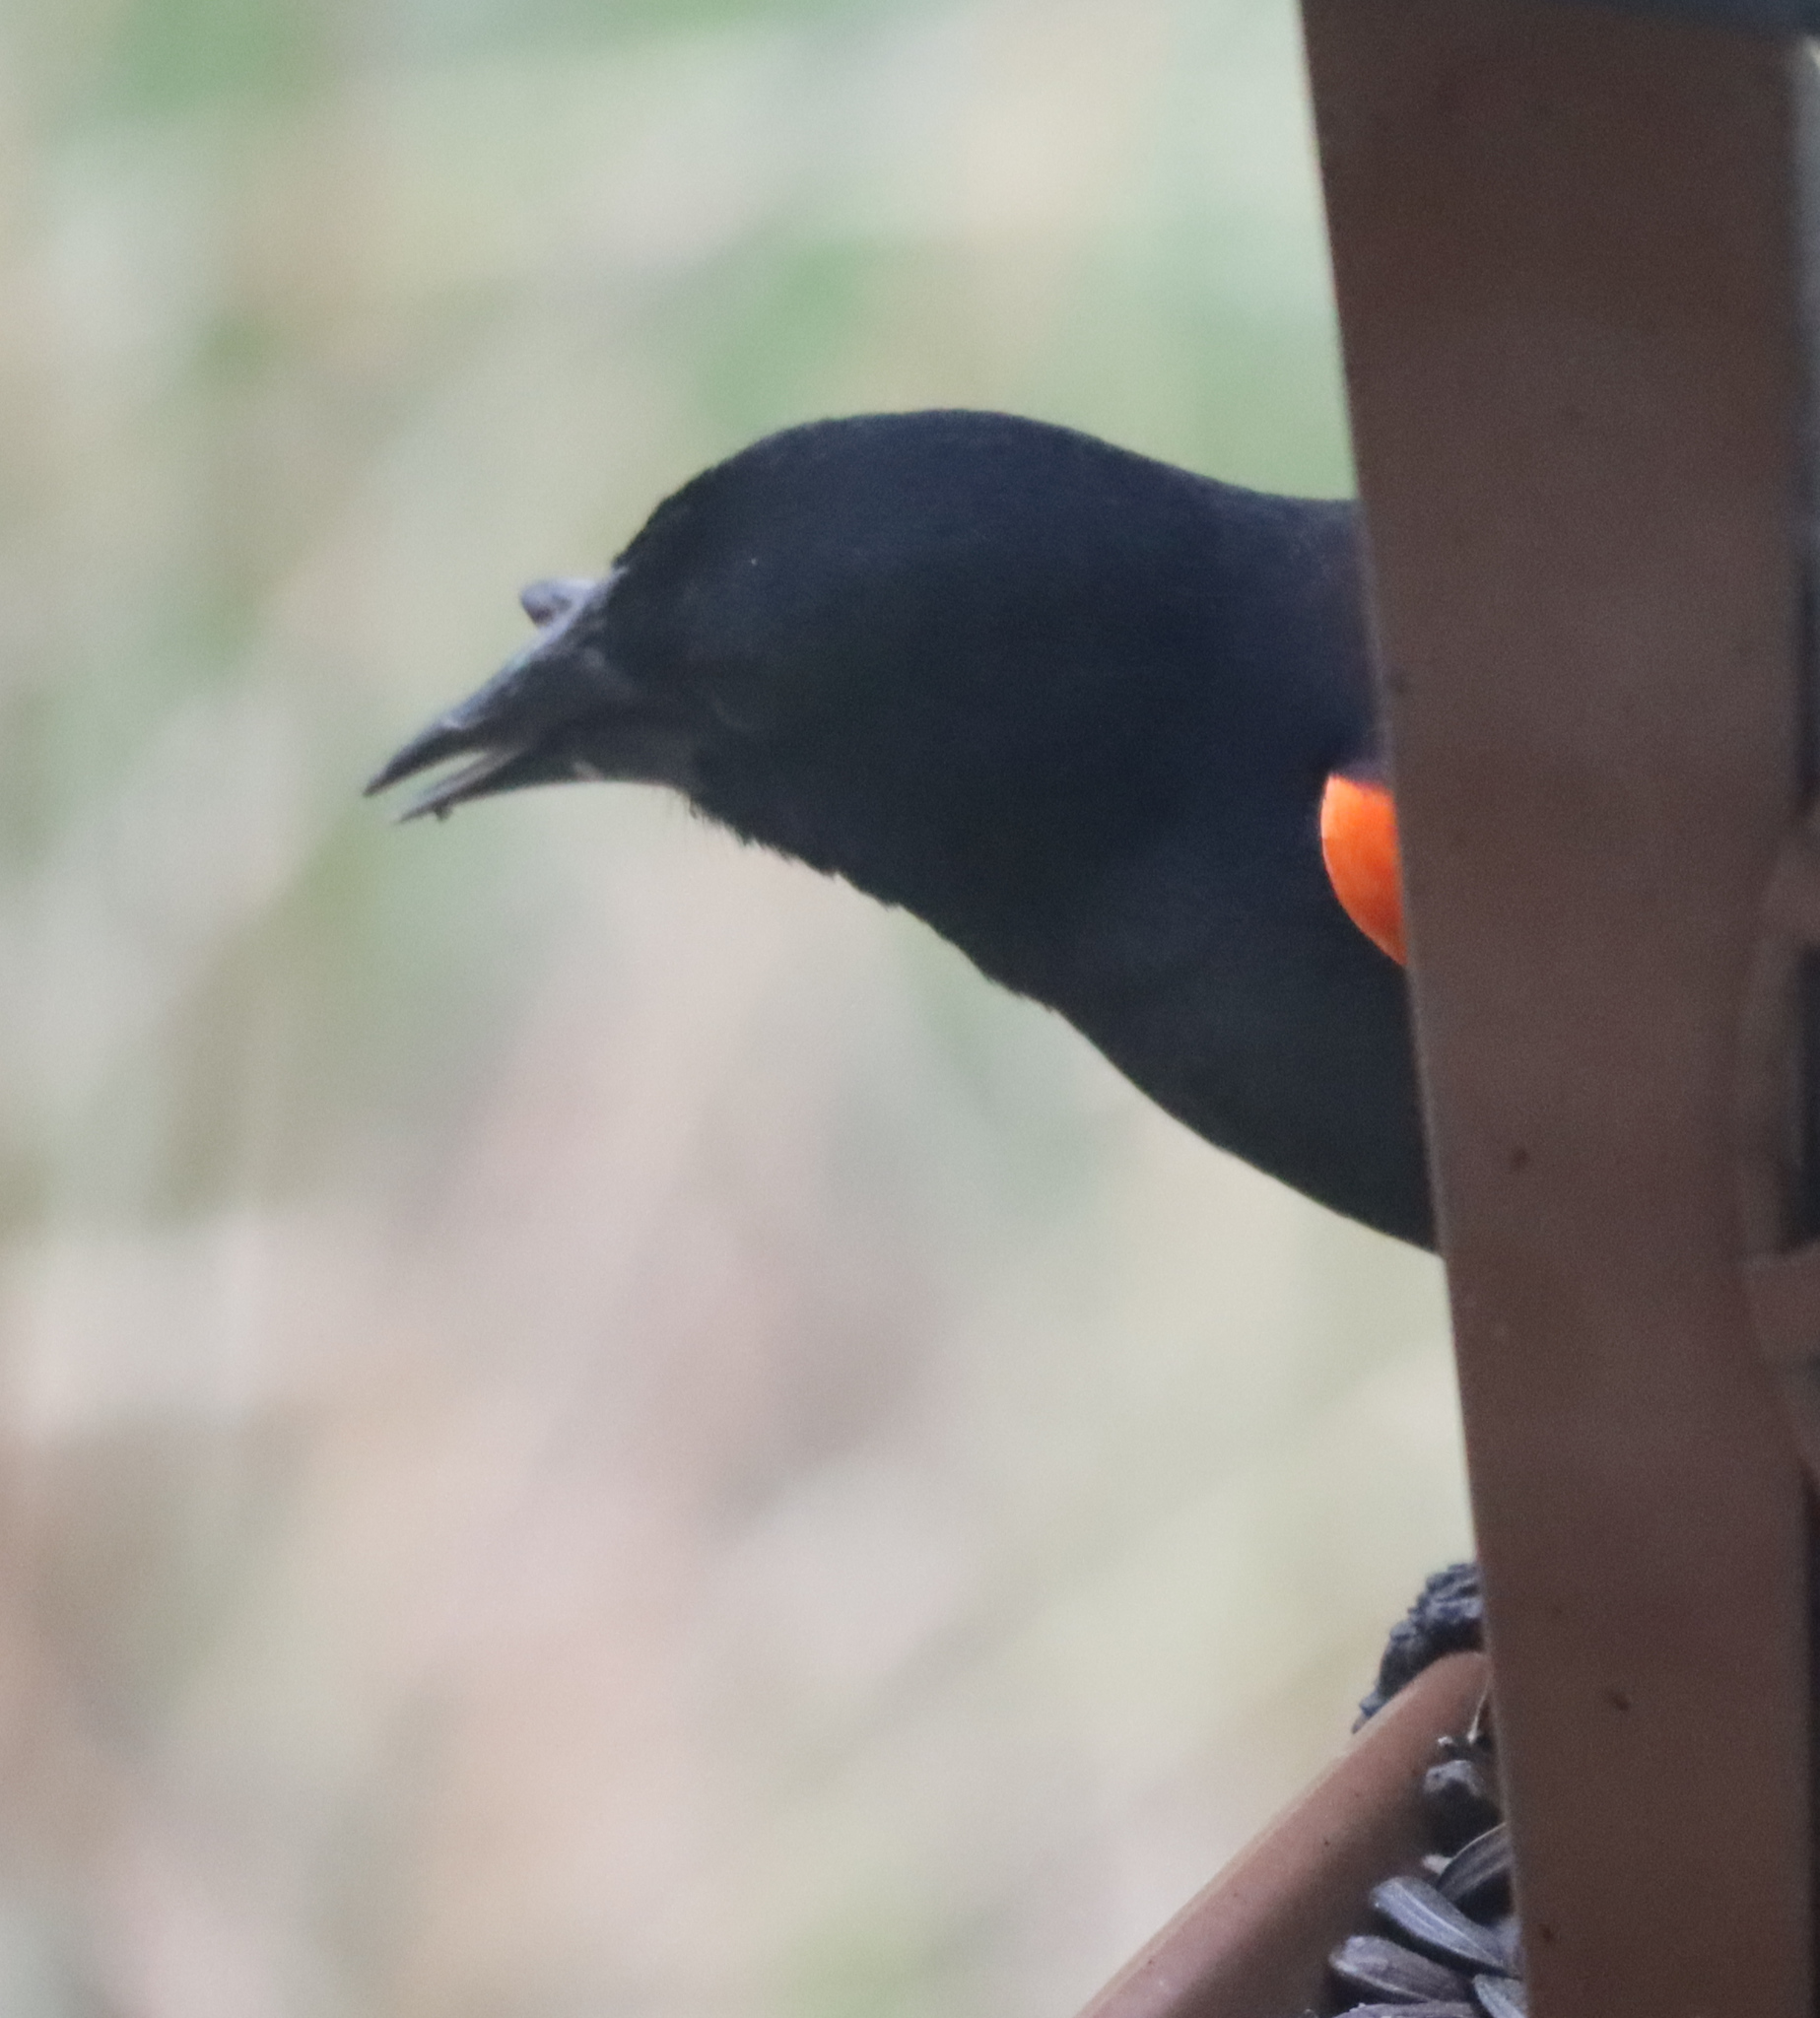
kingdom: Animalia
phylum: Chordata
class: Aves
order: Passeriformes
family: Icteridae
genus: Agelaius
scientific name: Agelaius phoeniceus
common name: Red-winged blackbird
